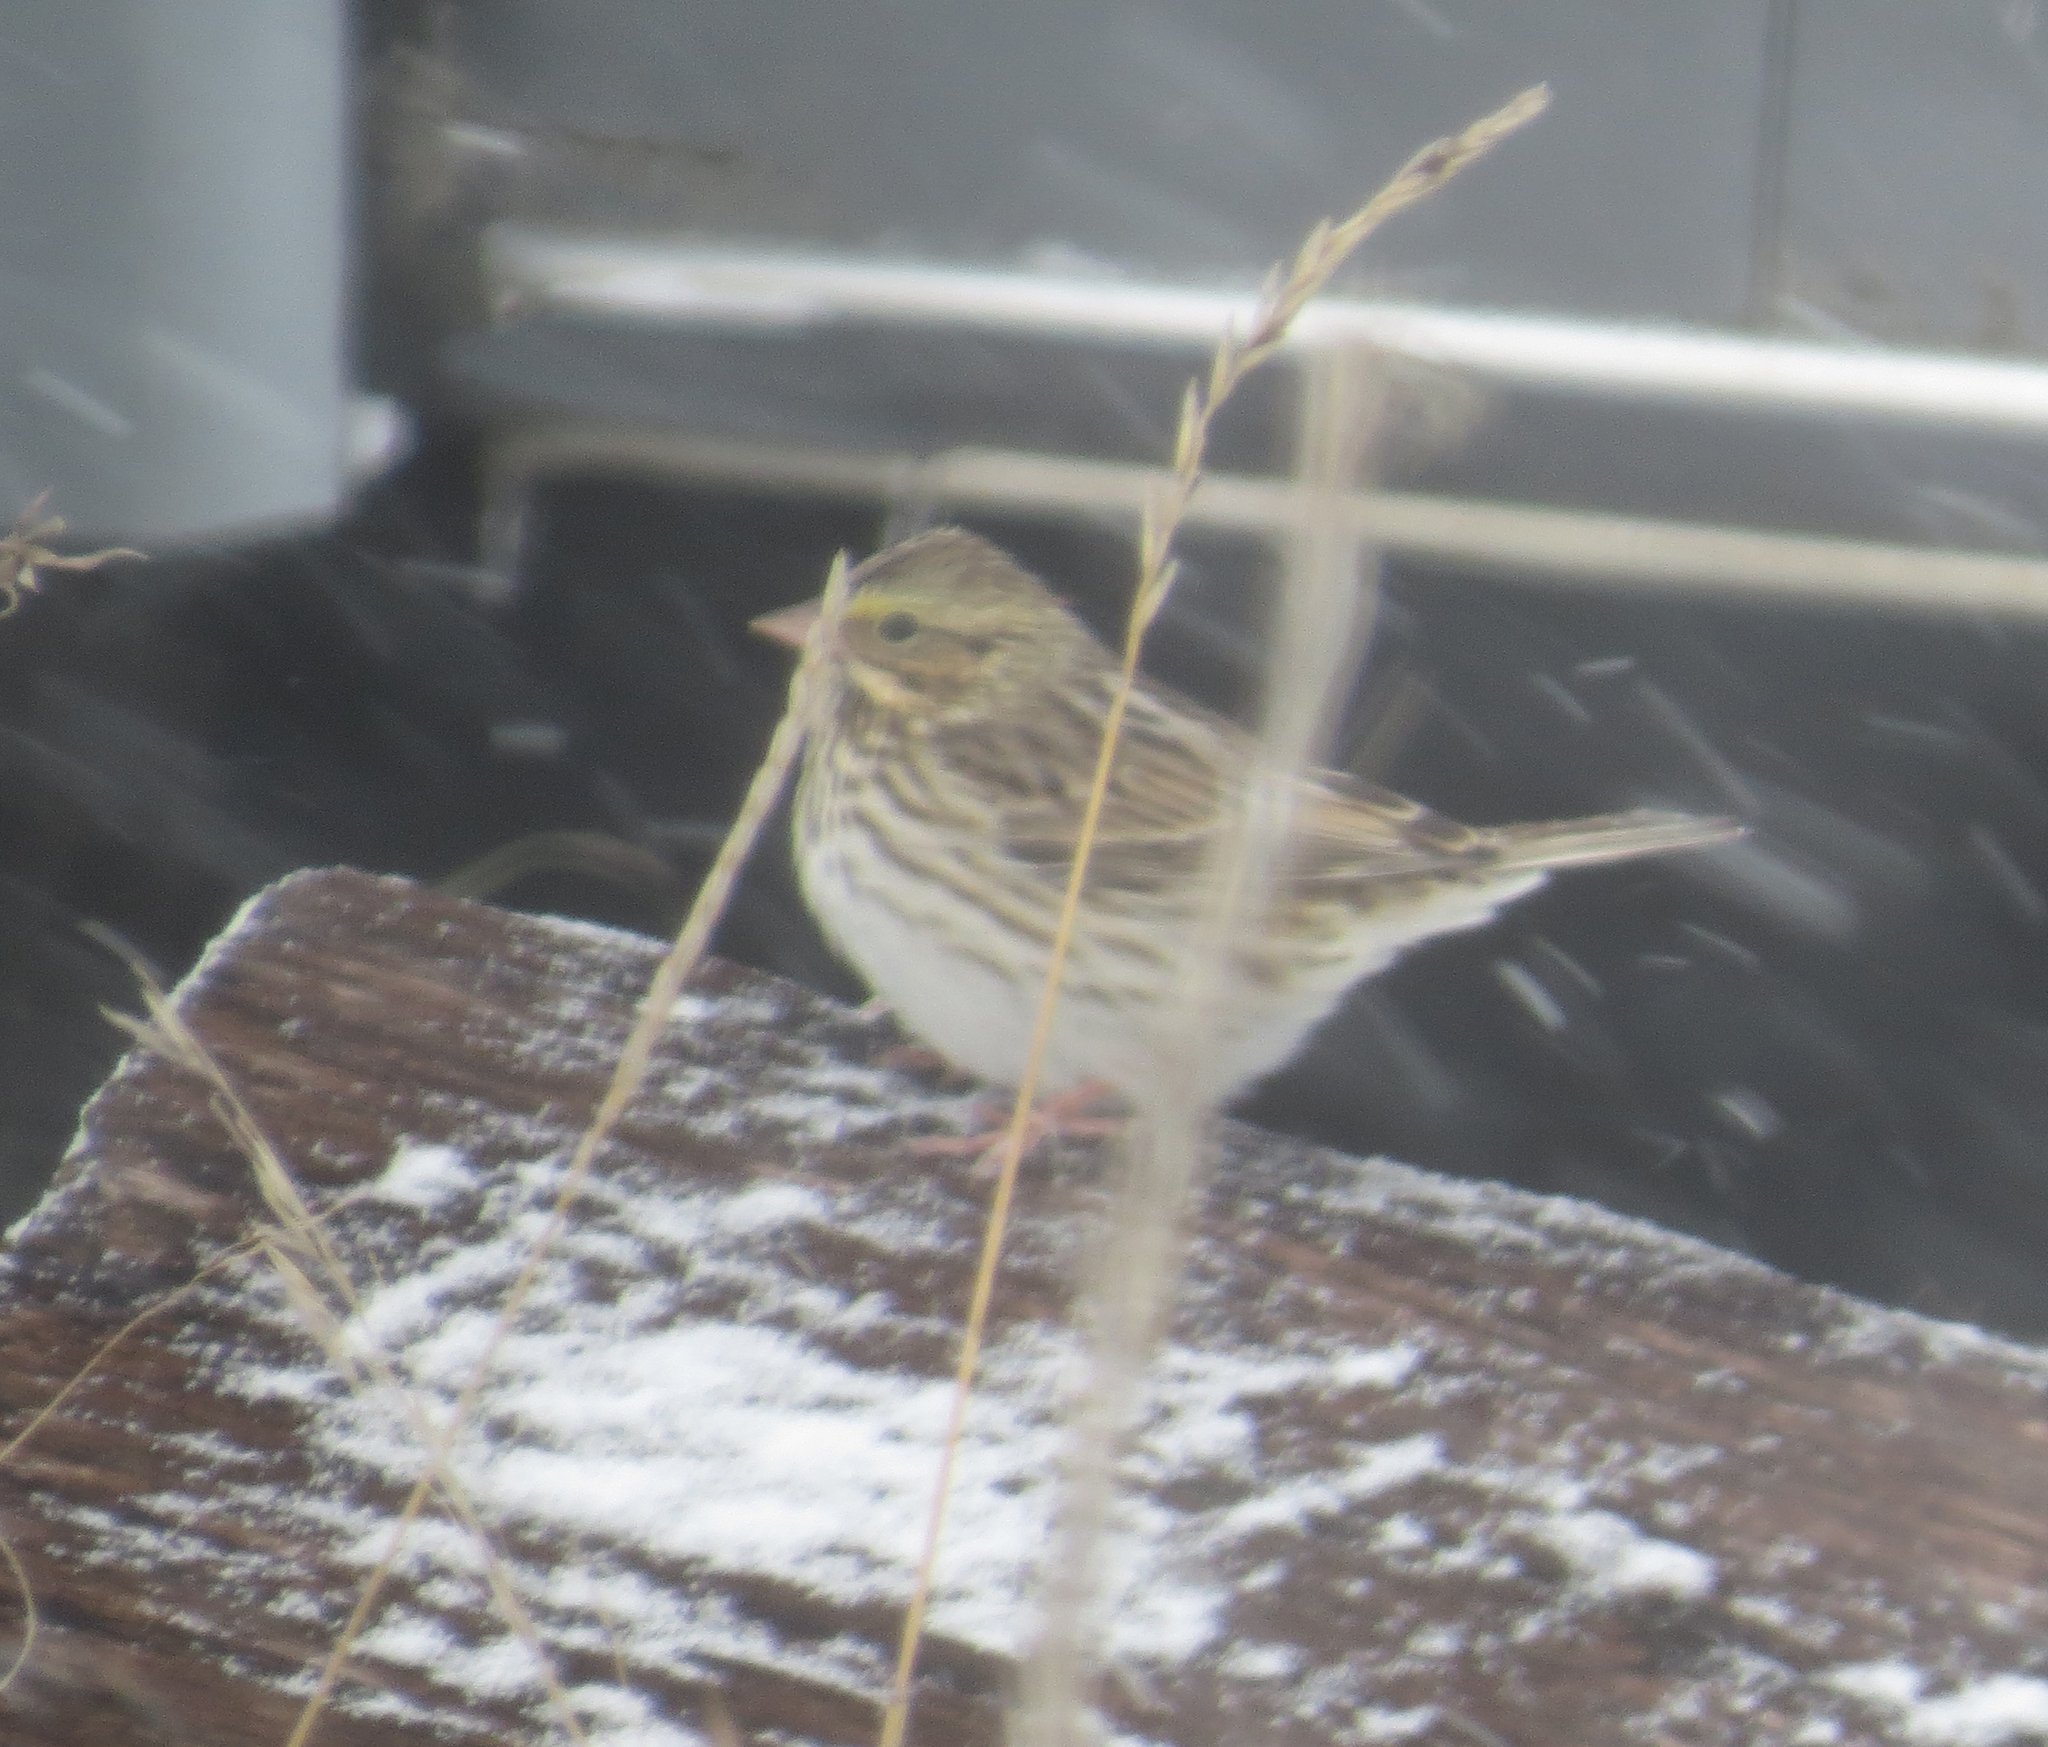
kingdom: Animalia
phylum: Chordata
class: Aves
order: Passeriformes
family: Passerellidae
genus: Passerculus
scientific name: Passerculus sandwichensis
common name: Savannah sparrow
